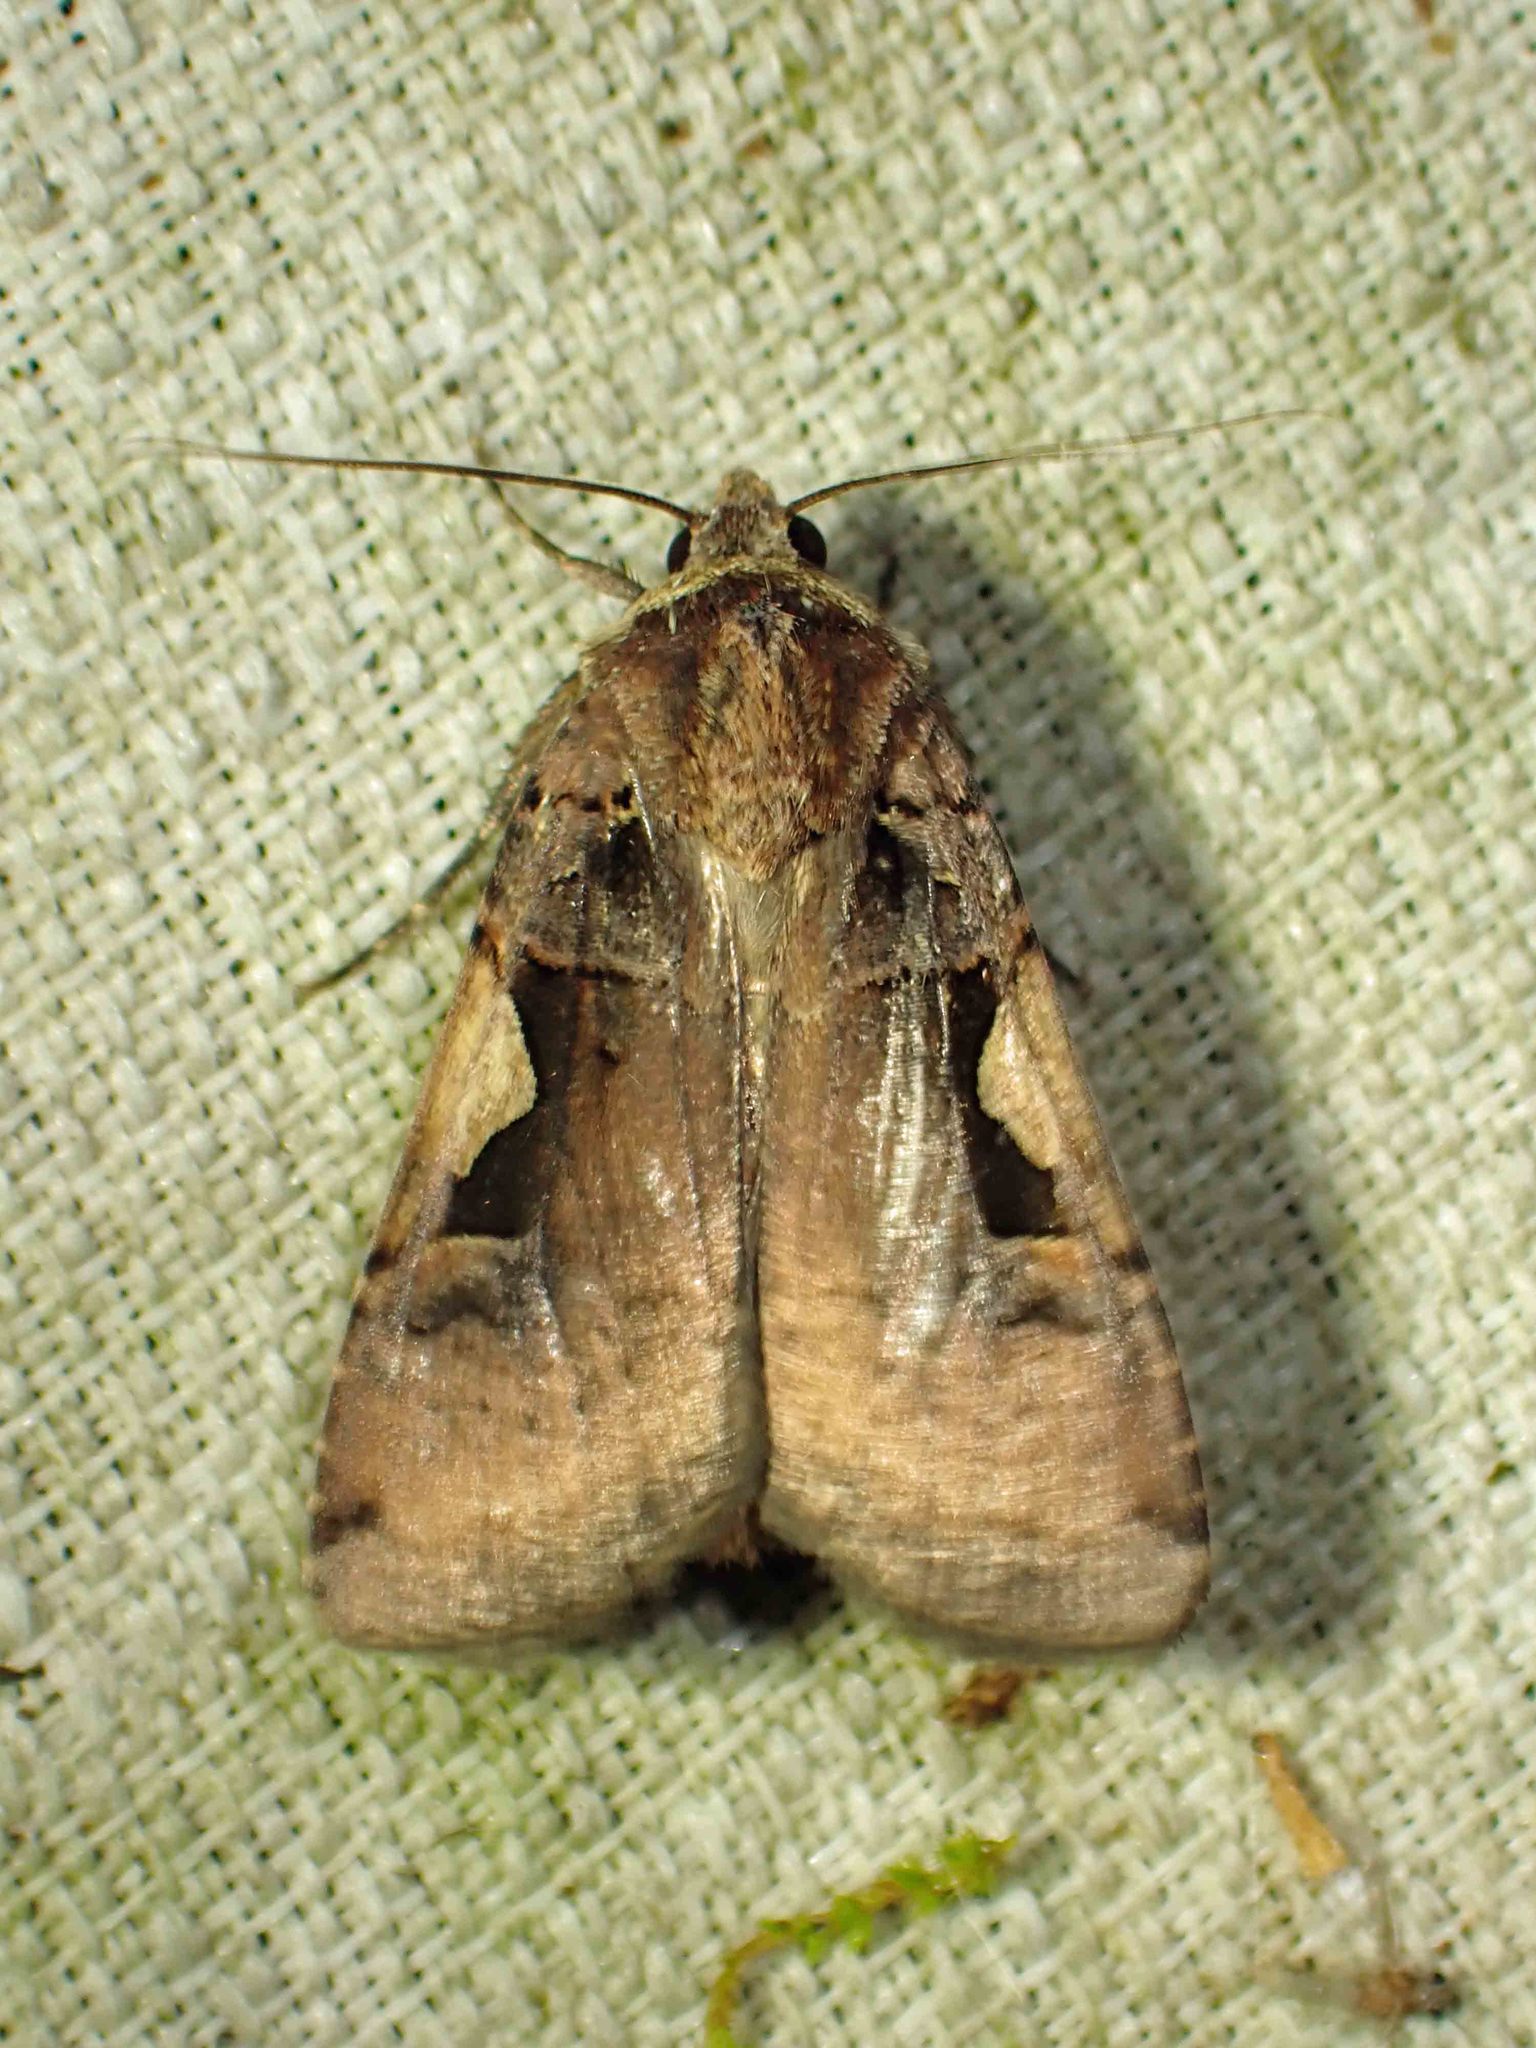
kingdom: Animalia
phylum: Arthropoda
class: Insecta
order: Lepidoptera
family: Noctuidae
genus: Xestia
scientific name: Xestia c-nigrum
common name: Setaceous hebrew character
